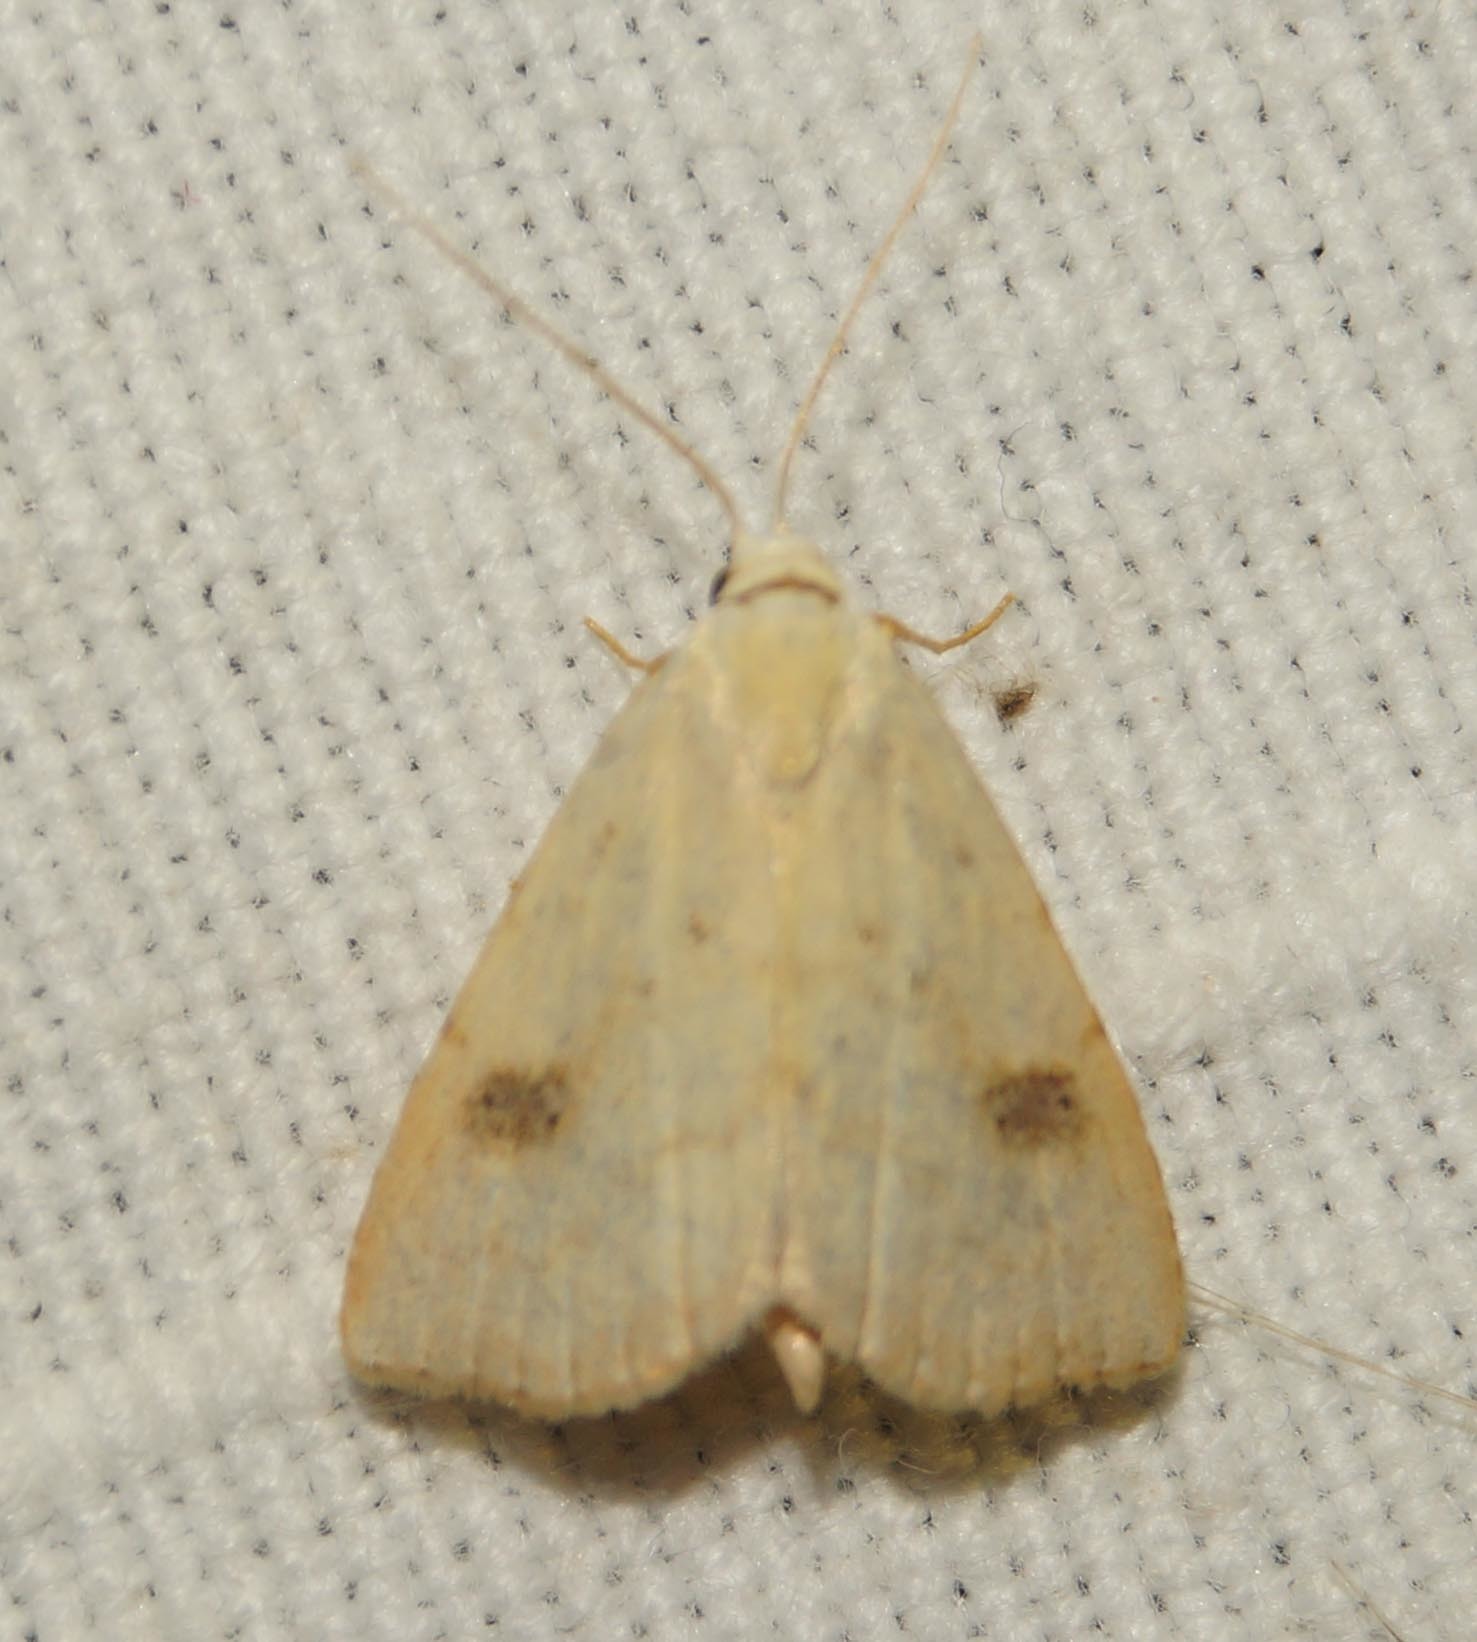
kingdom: Animalia
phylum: Arthropoda
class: Insecta
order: Lepidoptera
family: Erebidae
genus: Rivula
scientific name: Rivula sericealis
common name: Straw dot
